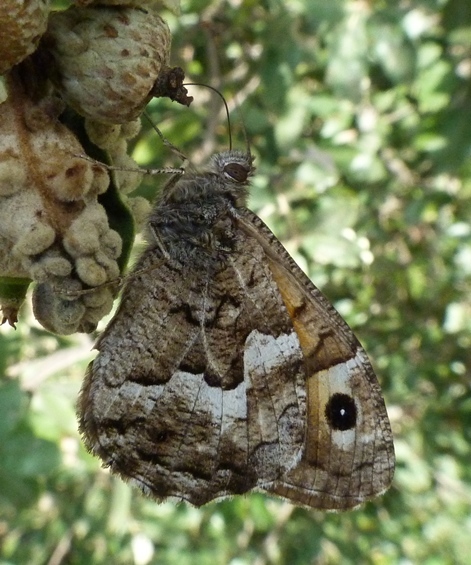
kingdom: Animalia
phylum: Arthropoda
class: Insecta
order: Lepidoptera
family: Nymphalidae
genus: Hipparchia
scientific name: Hipparchia semele
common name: Grayling
